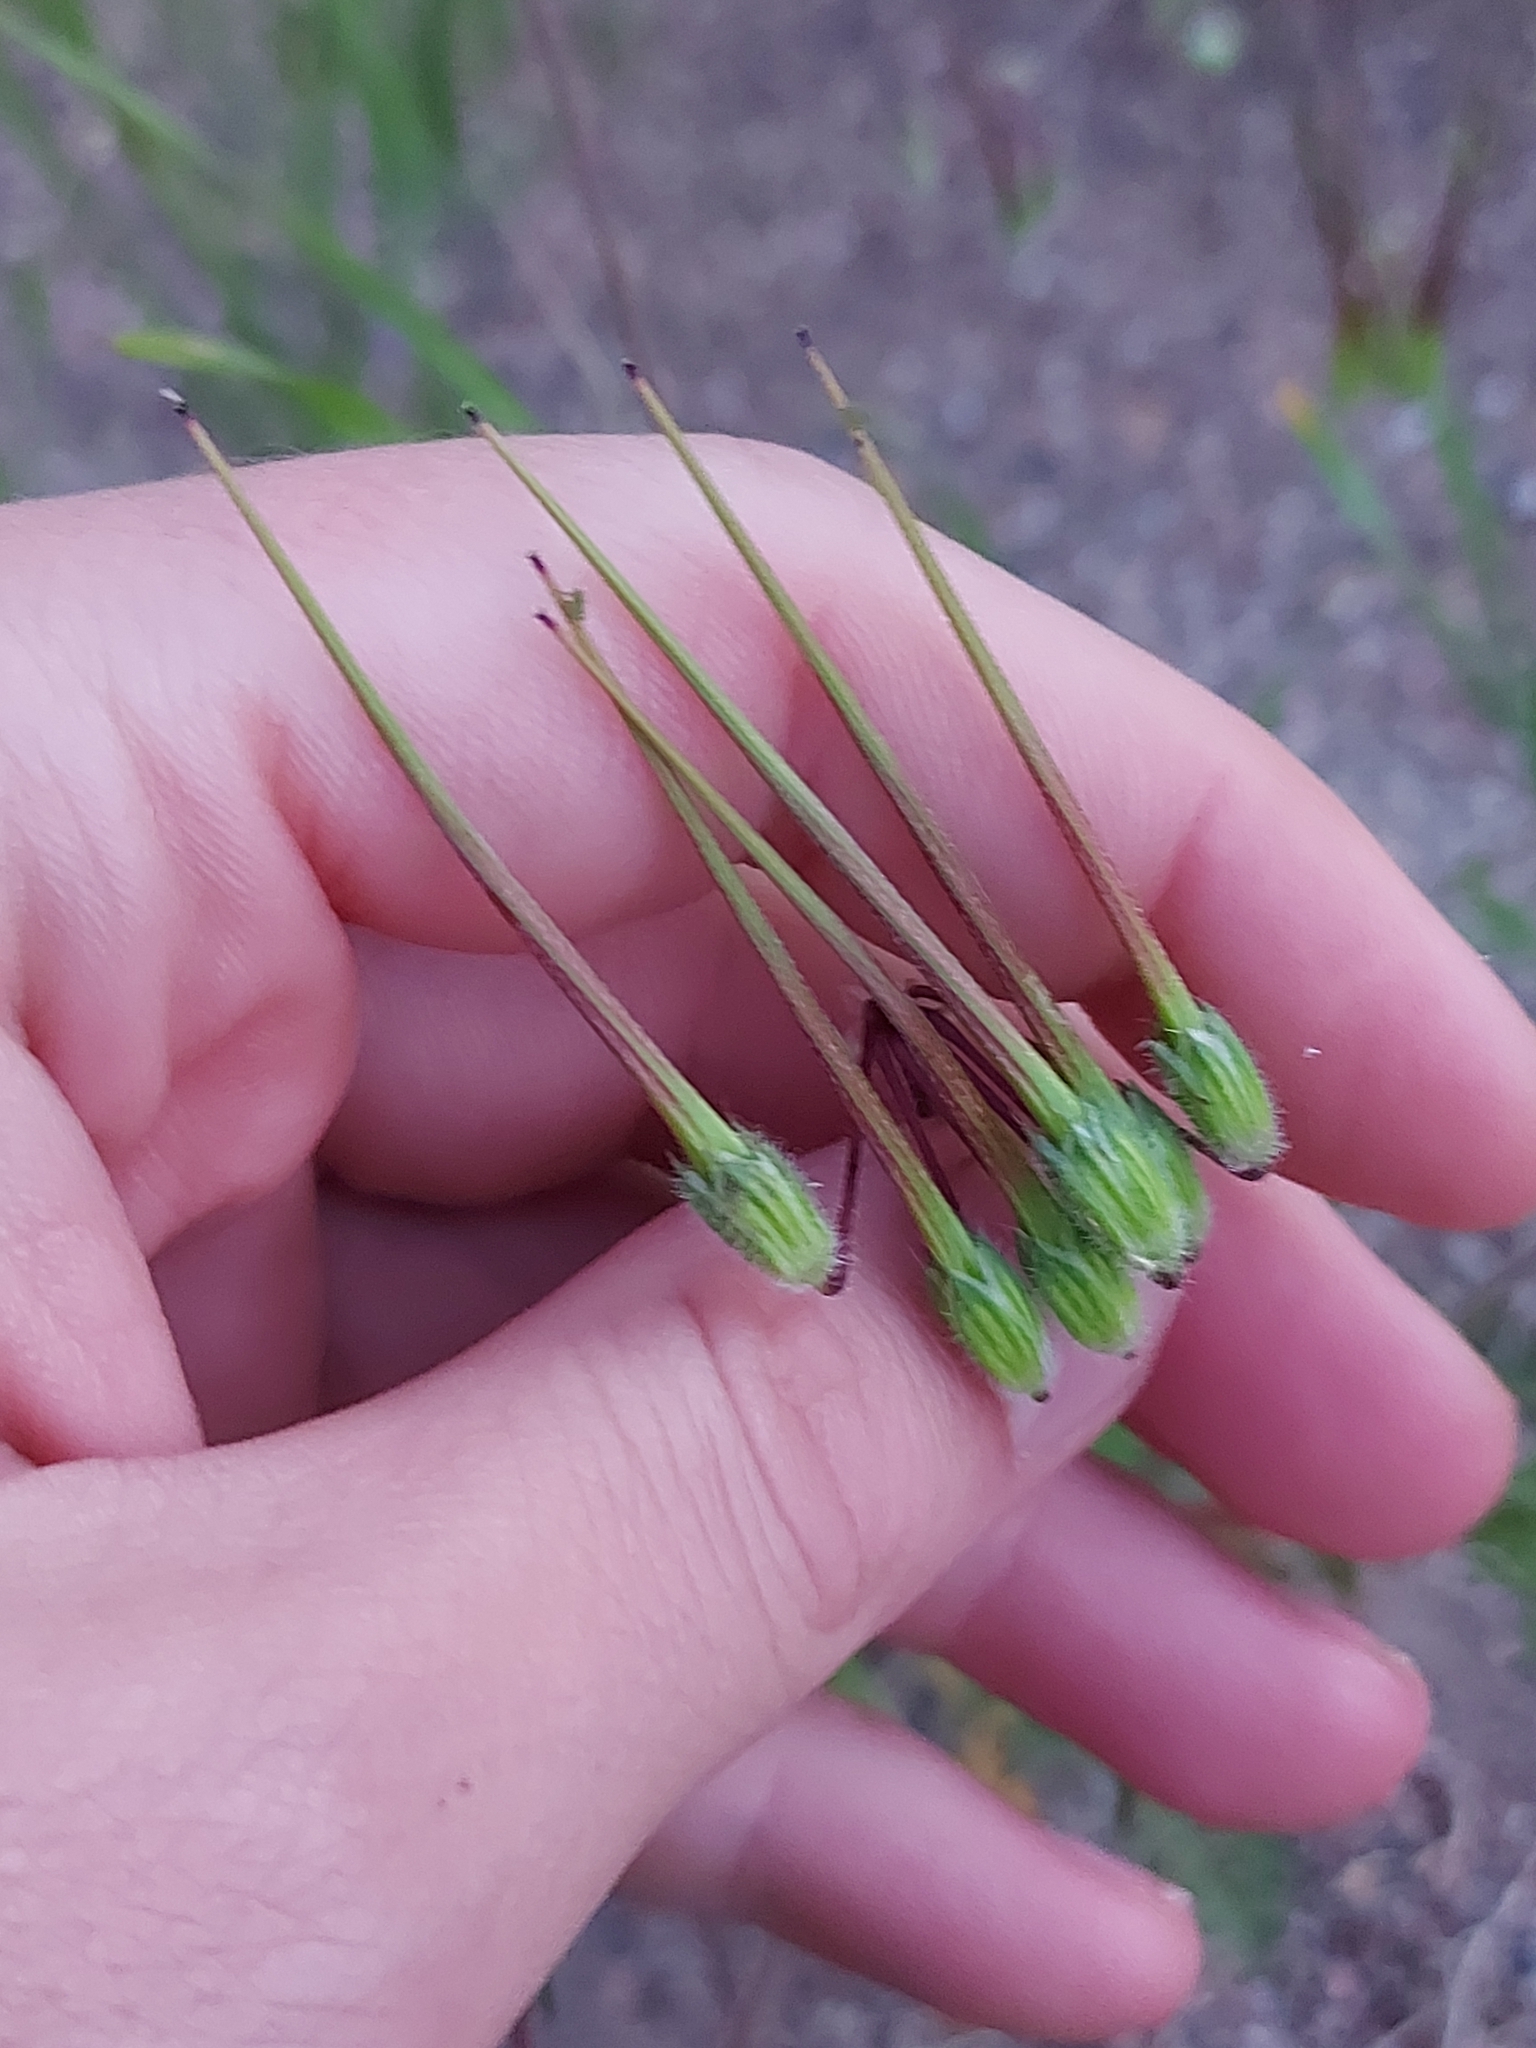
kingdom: Plantae
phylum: Tracheophyta
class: Magnoliopsida
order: Geraniales
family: Geraniaceae
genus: Erodium
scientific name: Erodium cicutarium
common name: Common stork's-bill
